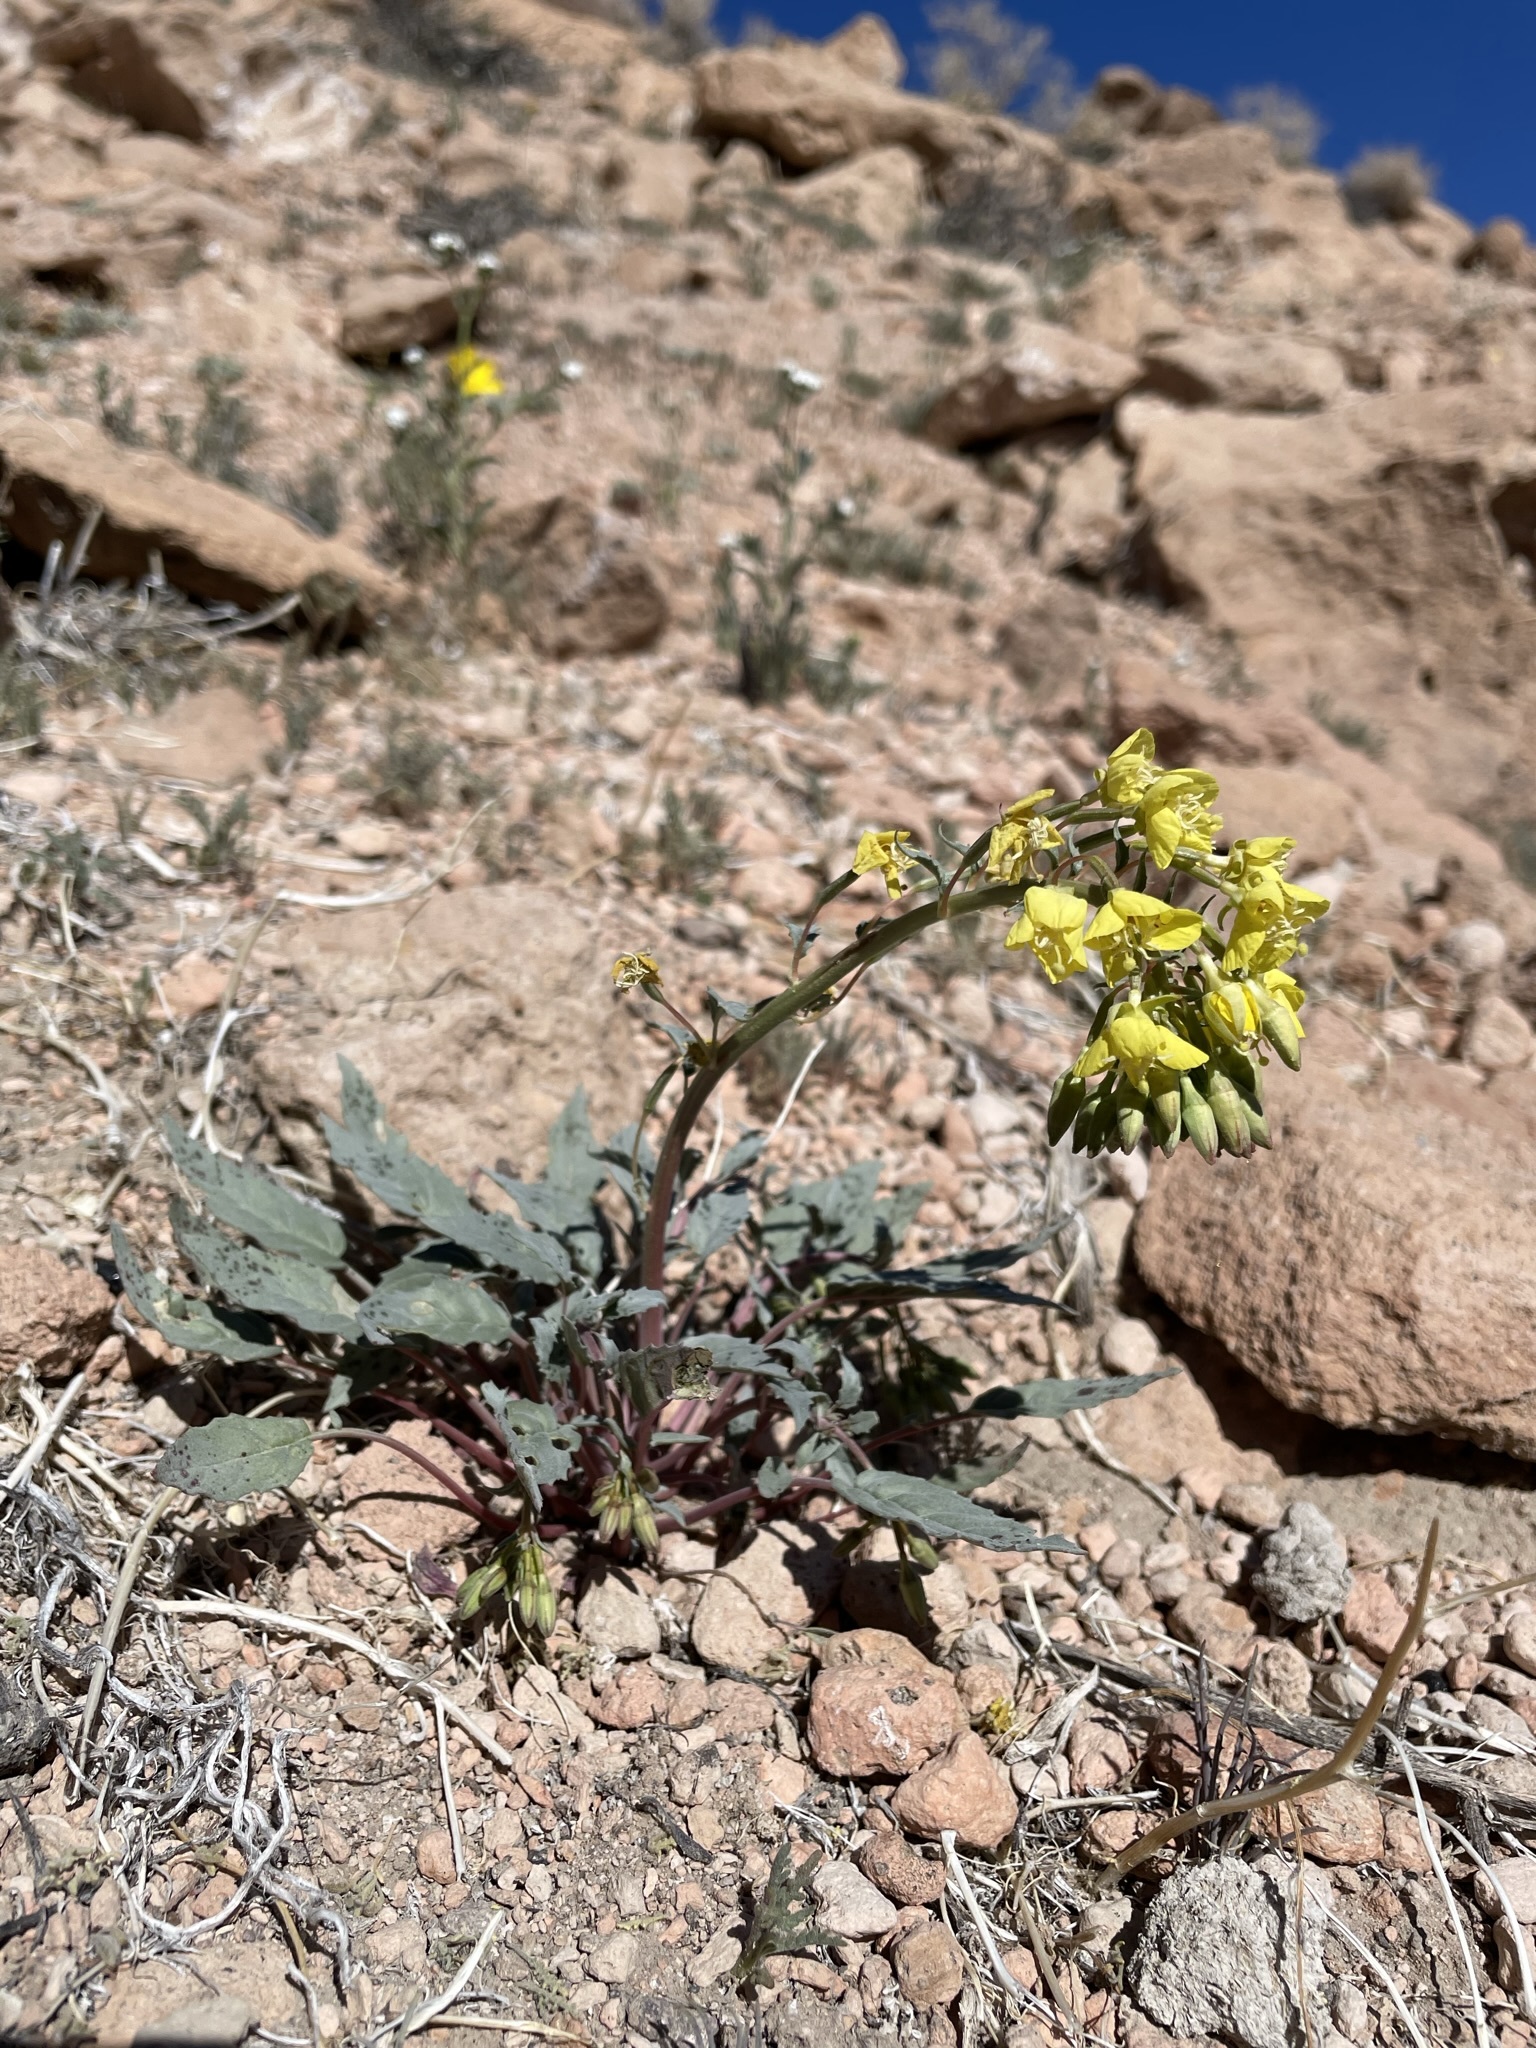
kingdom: Plantae
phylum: Tracheophyta
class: Magnoliopsida
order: Myrtales
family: Onagraceae
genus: Chylismia
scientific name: Chylismia claviformis
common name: Browneyes
